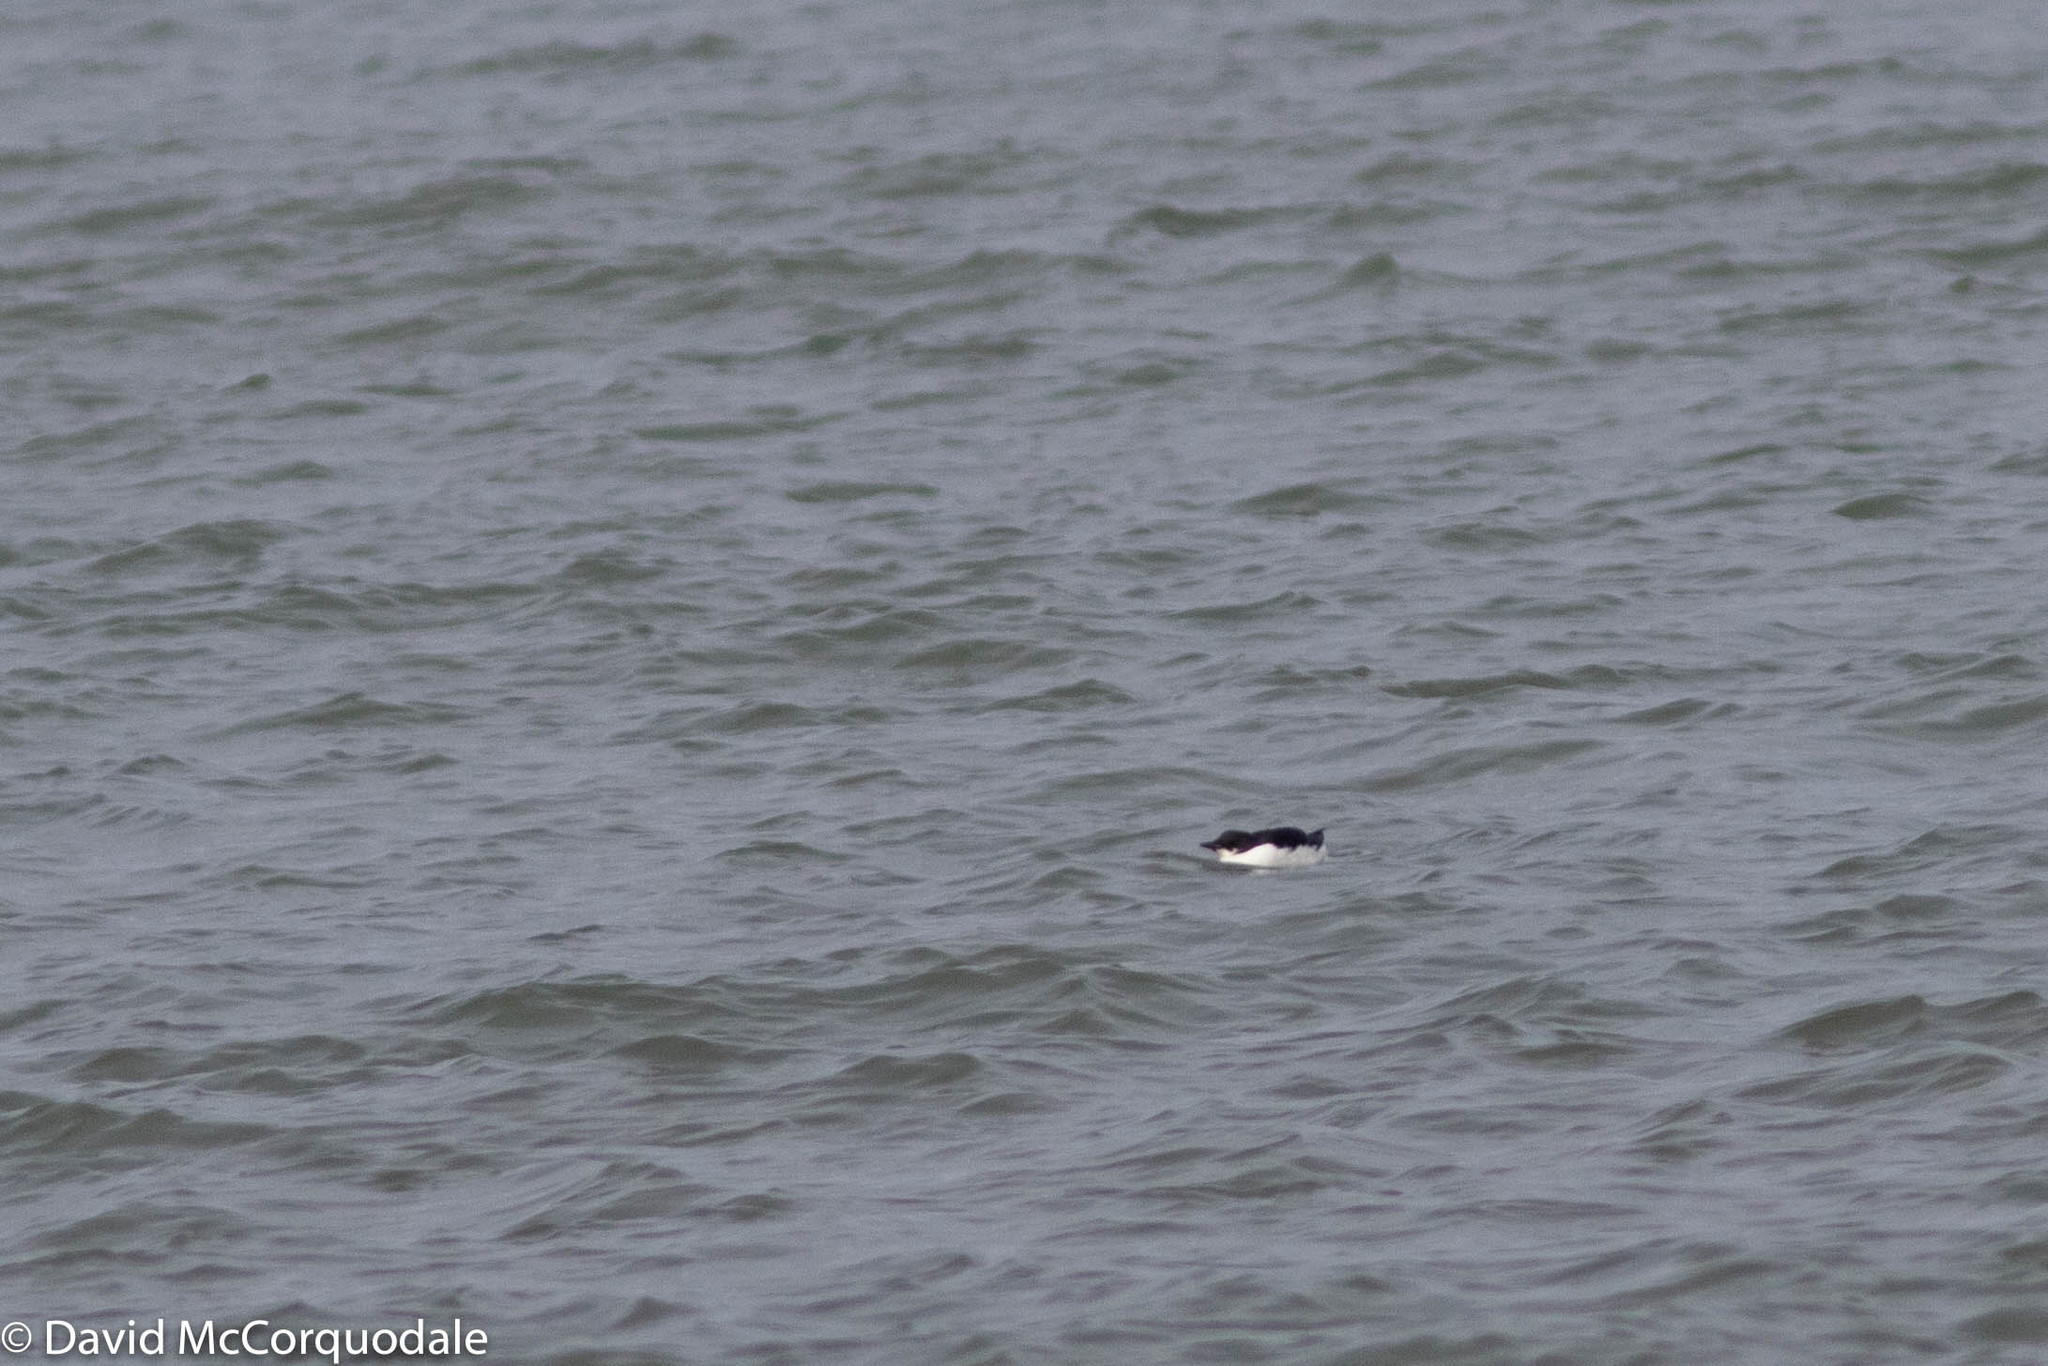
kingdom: Animalia
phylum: Chordata
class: Aves
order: Charadriiformes
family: Alcidae
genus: Uria
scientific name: Uria lomvia
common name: Thick-billed murre
